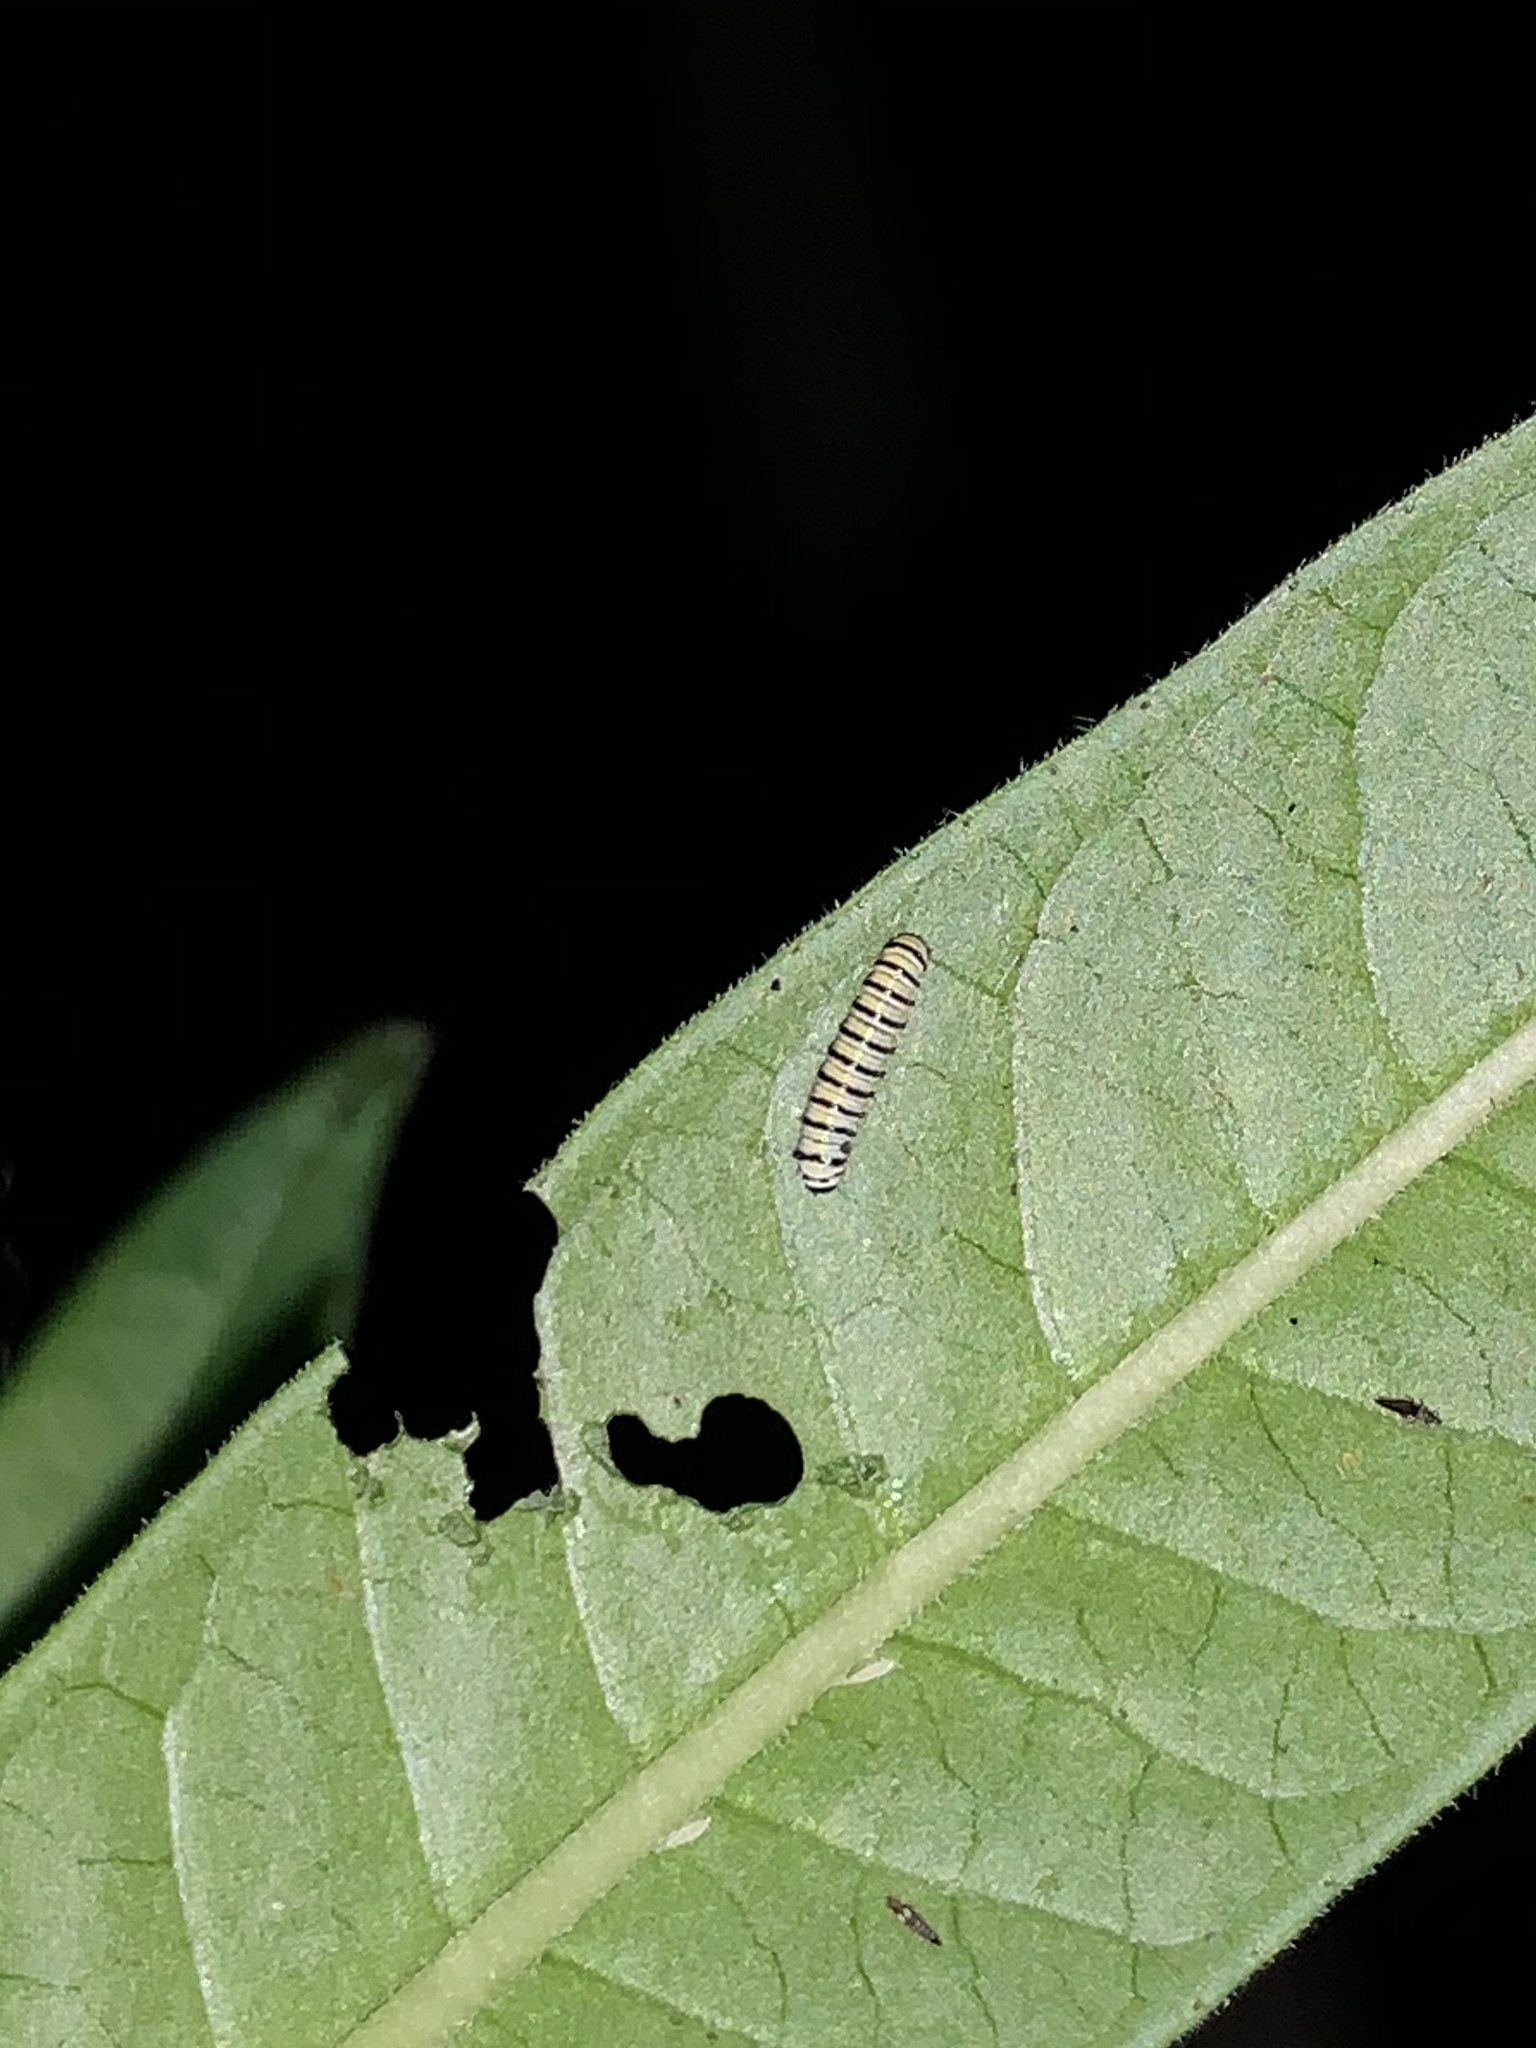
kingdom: Animalia
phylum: Arthropoda
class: Insecta
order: Lepidoptera
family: Nymphalidae
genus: Danaus
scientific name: Danaus plexippus
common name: Monarch
